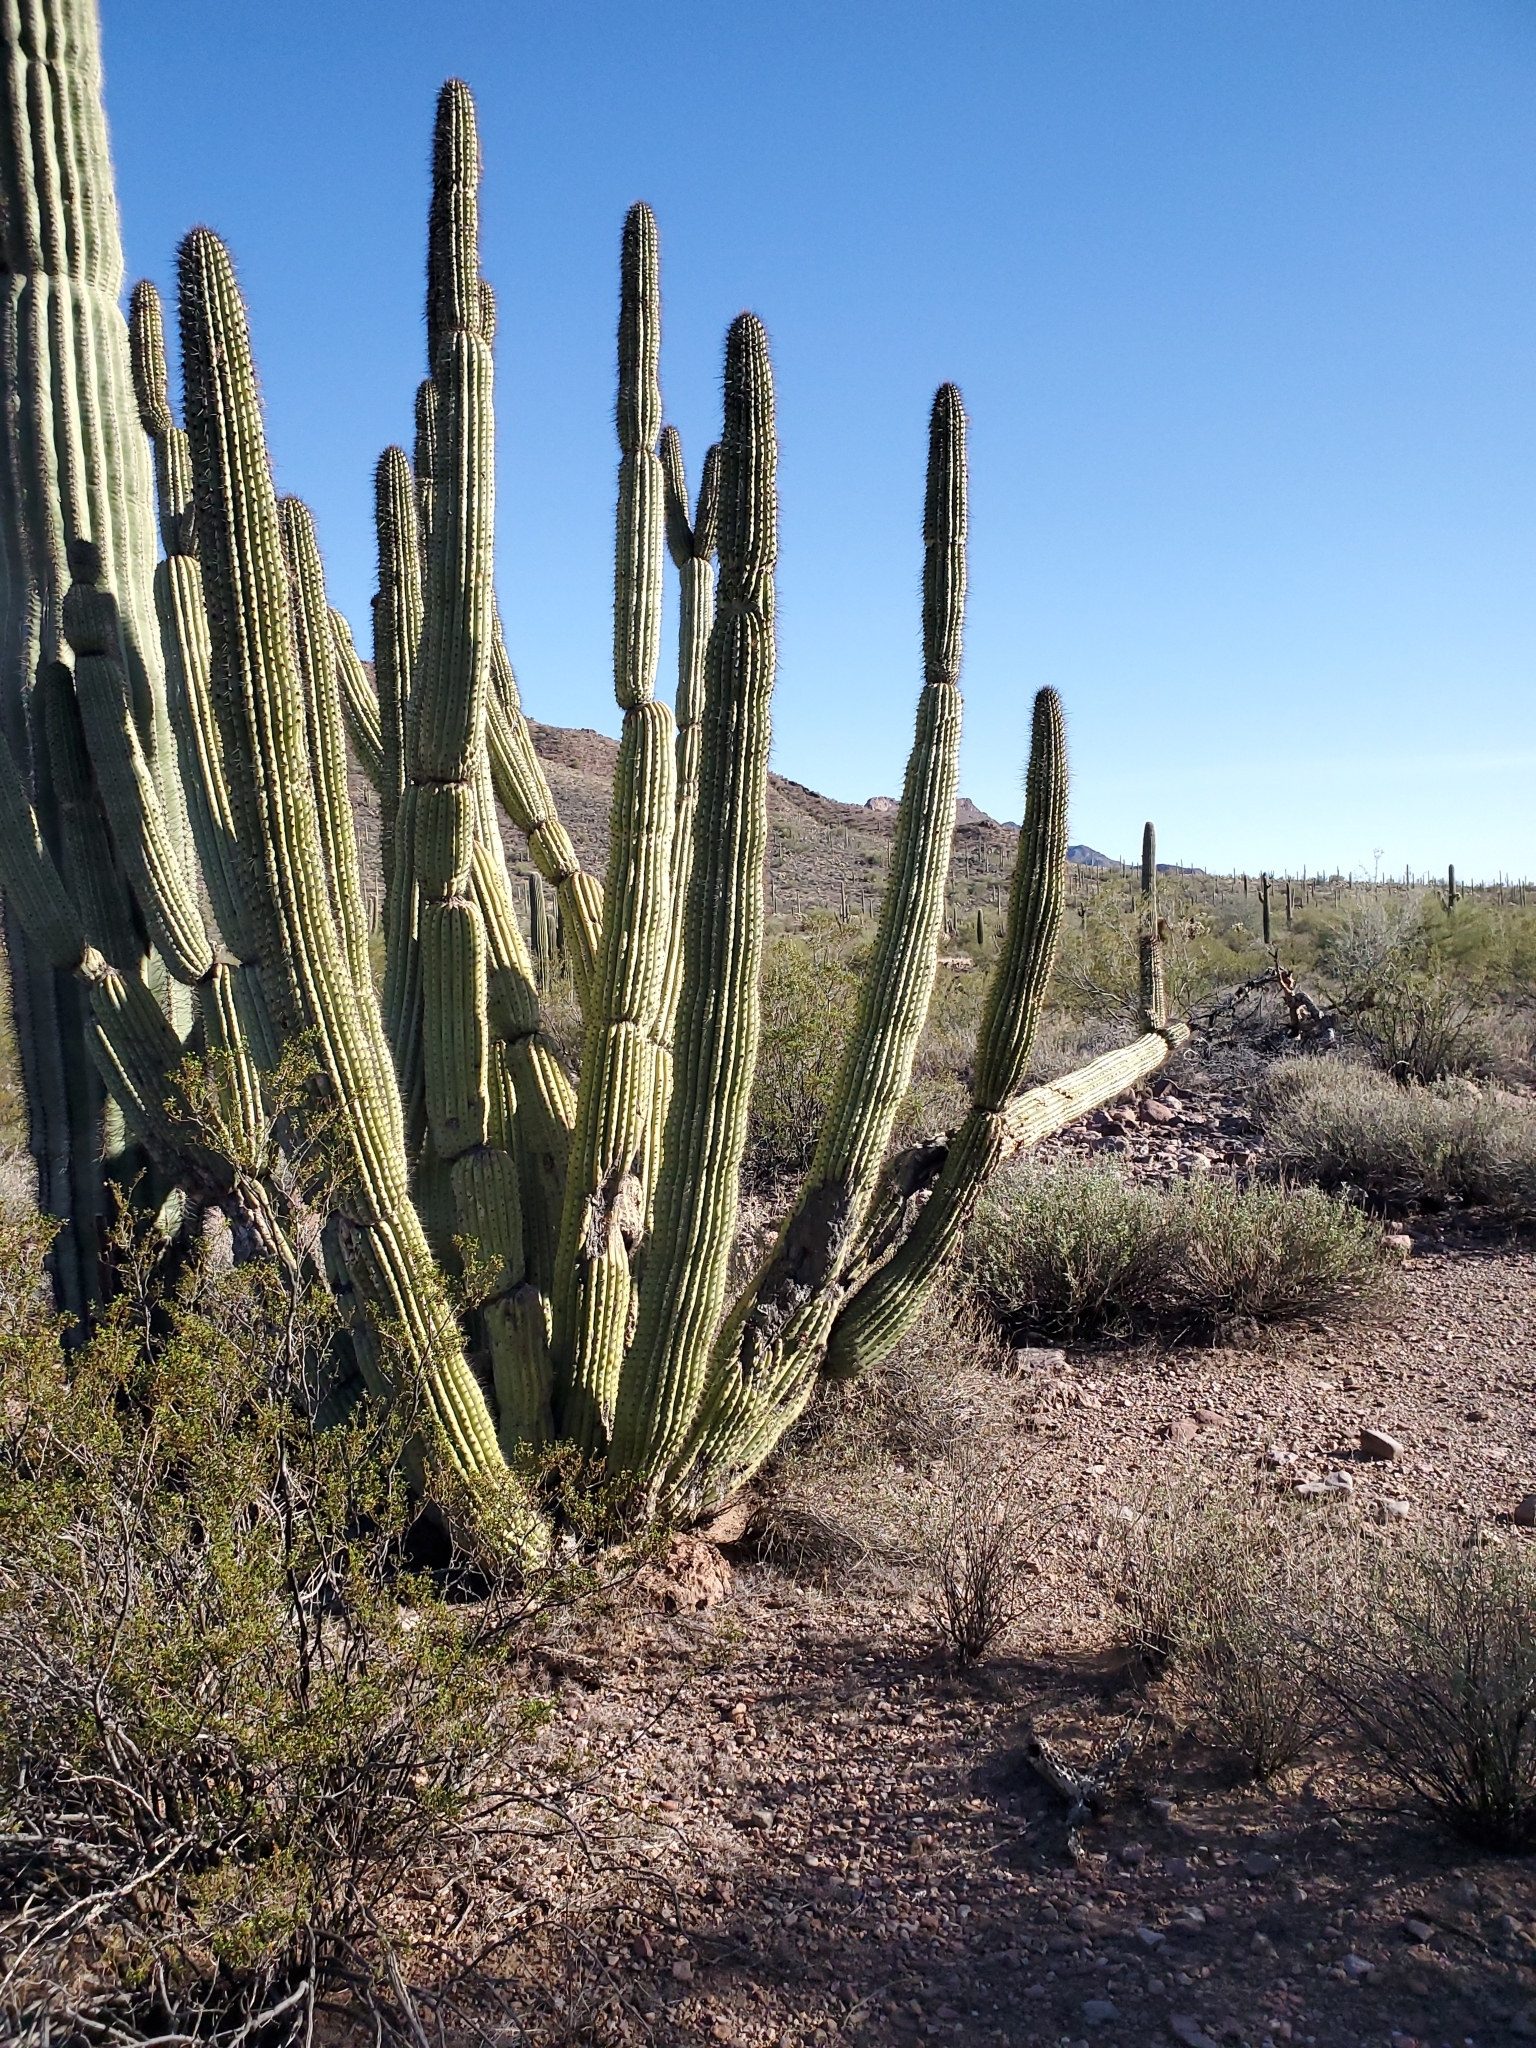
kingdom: Plantae
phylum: Tracheophyta
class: Magnoliopsida
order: Caryophyllales
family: Cactaceae
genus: Stenocereus
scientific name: Stenocereus thurberi
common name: Organ pipe cactus
